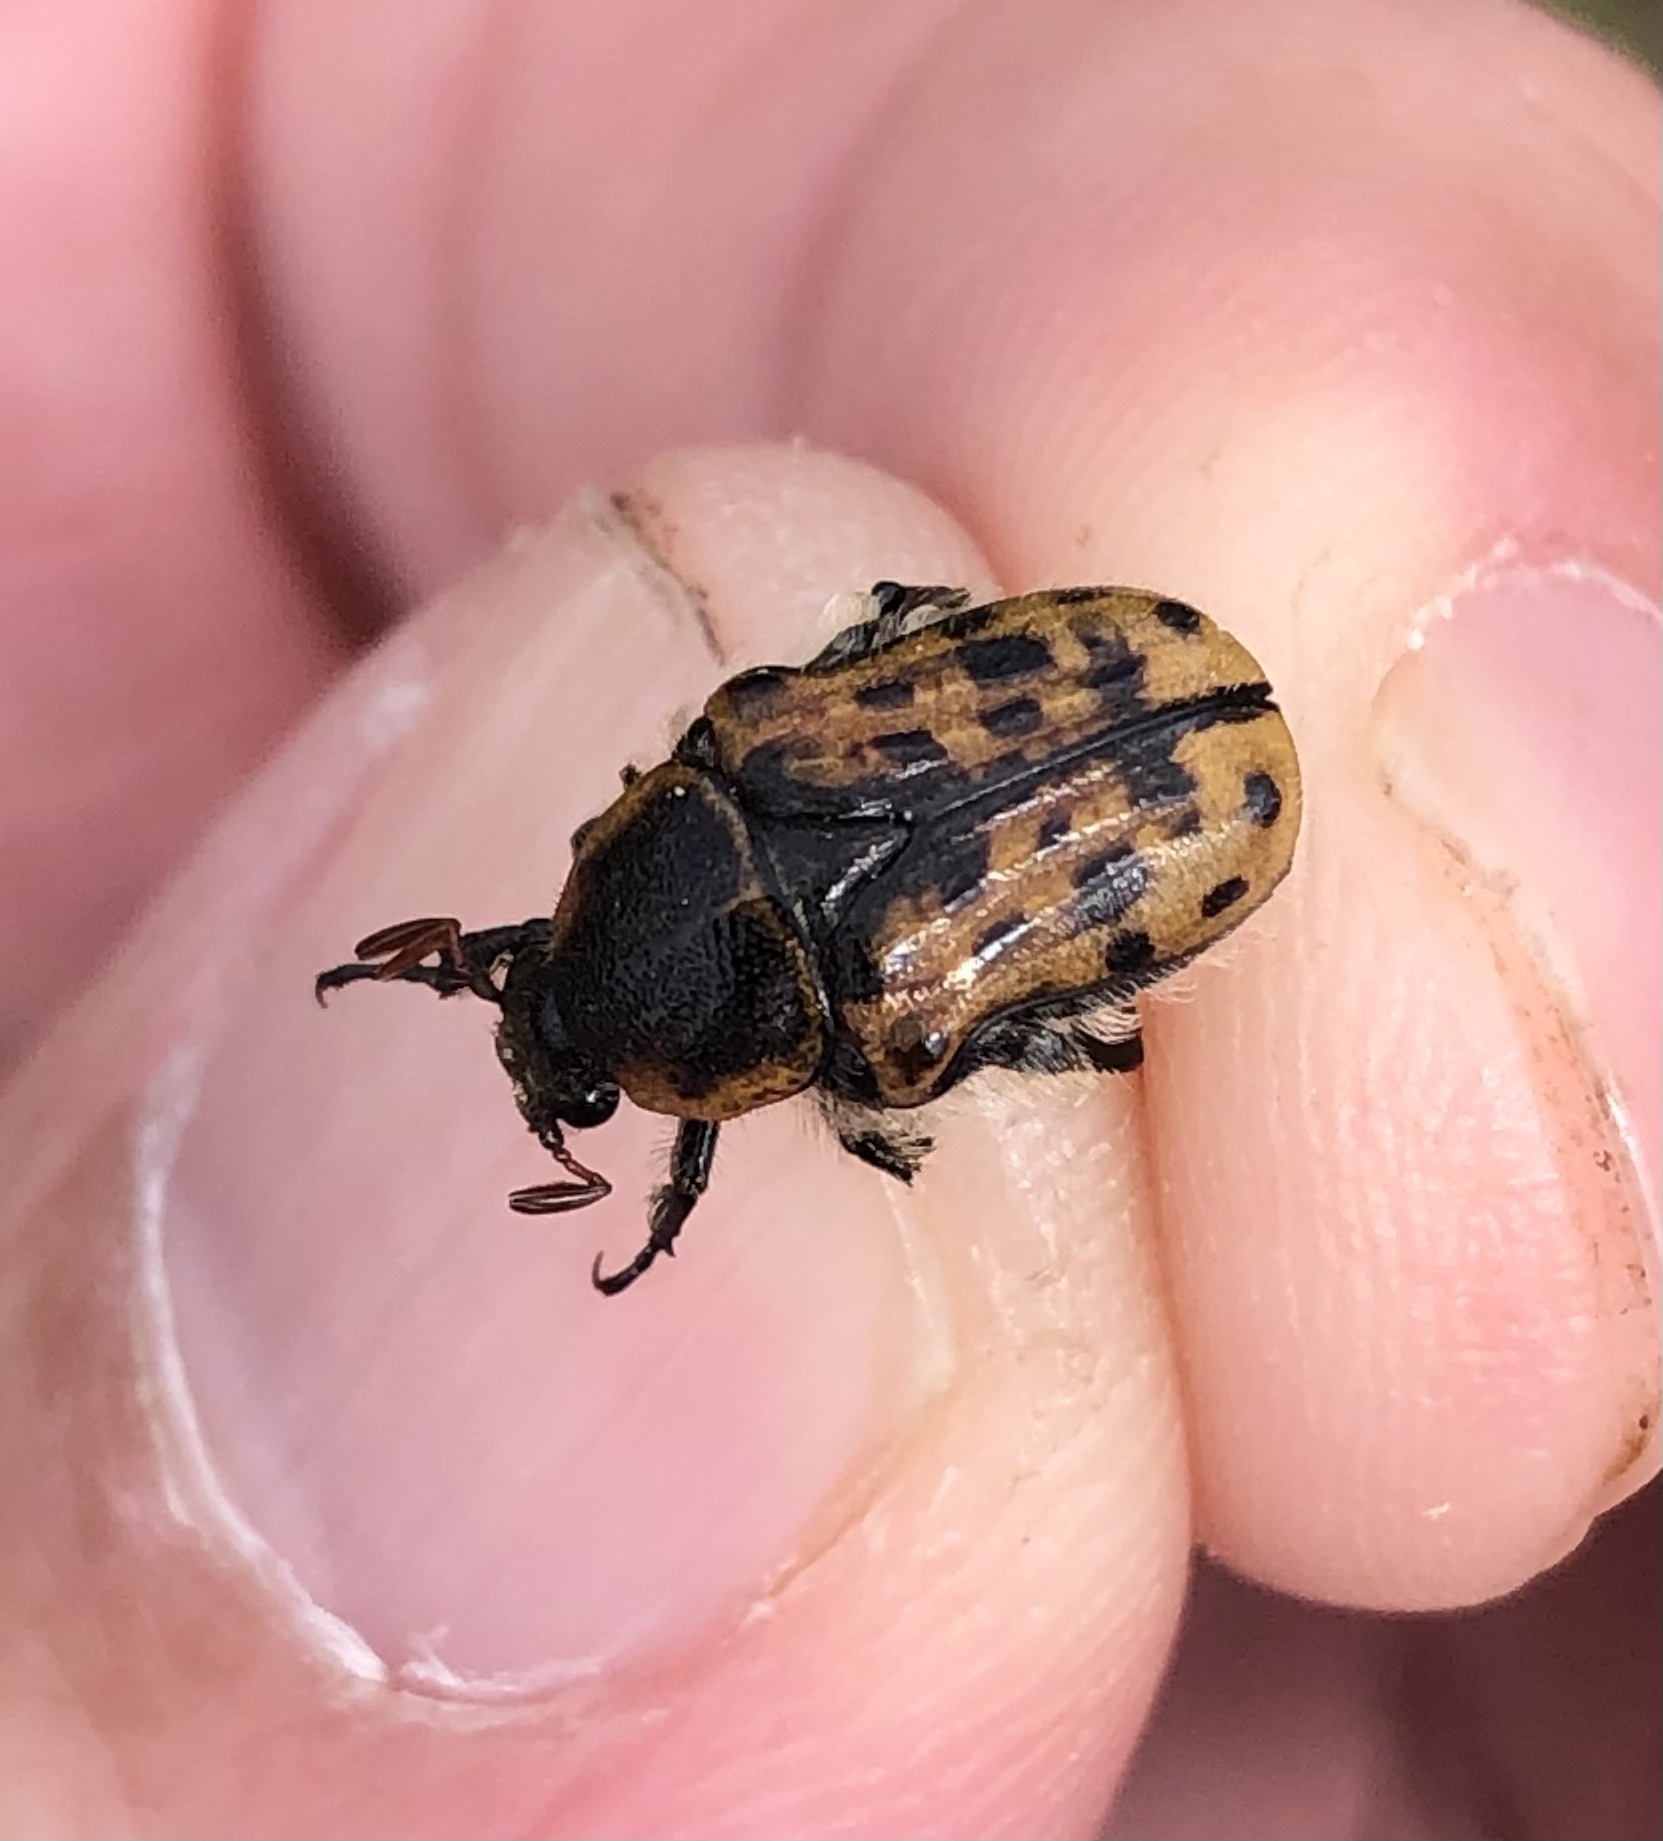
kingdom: Animalia
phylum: Arthropoda
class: Insecta
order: Coleoptera
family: Scarabaeidae
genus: Euphoria
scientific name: Euphoria kernii
